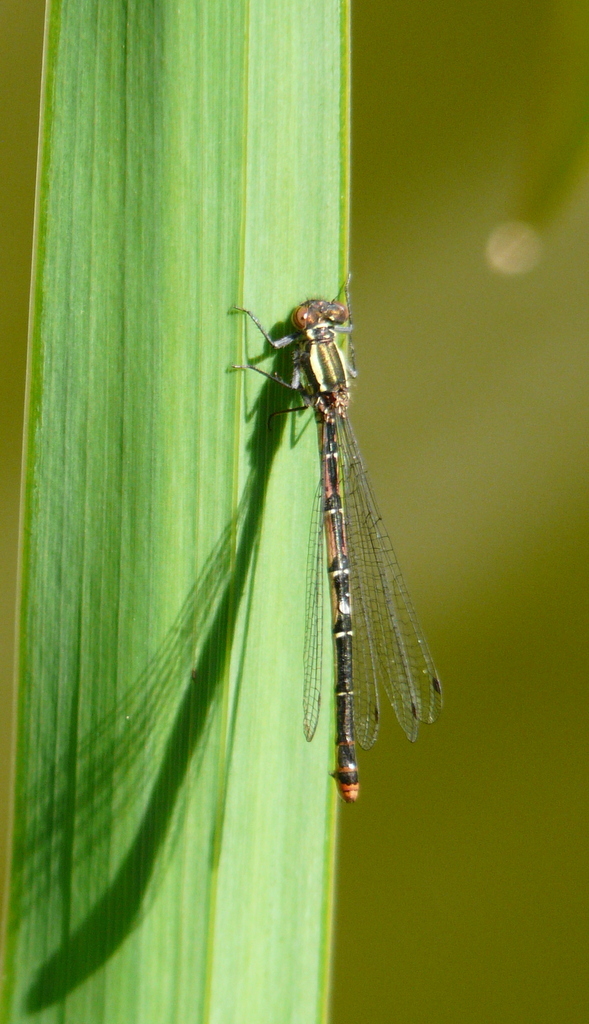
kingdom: Animalia
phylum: Arthropoda
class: Insecta
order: Odonata
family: Coenagrionidae
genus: Pyrrhosoma
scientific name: Pyrrhosoma nymphula
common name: Large red damsel
